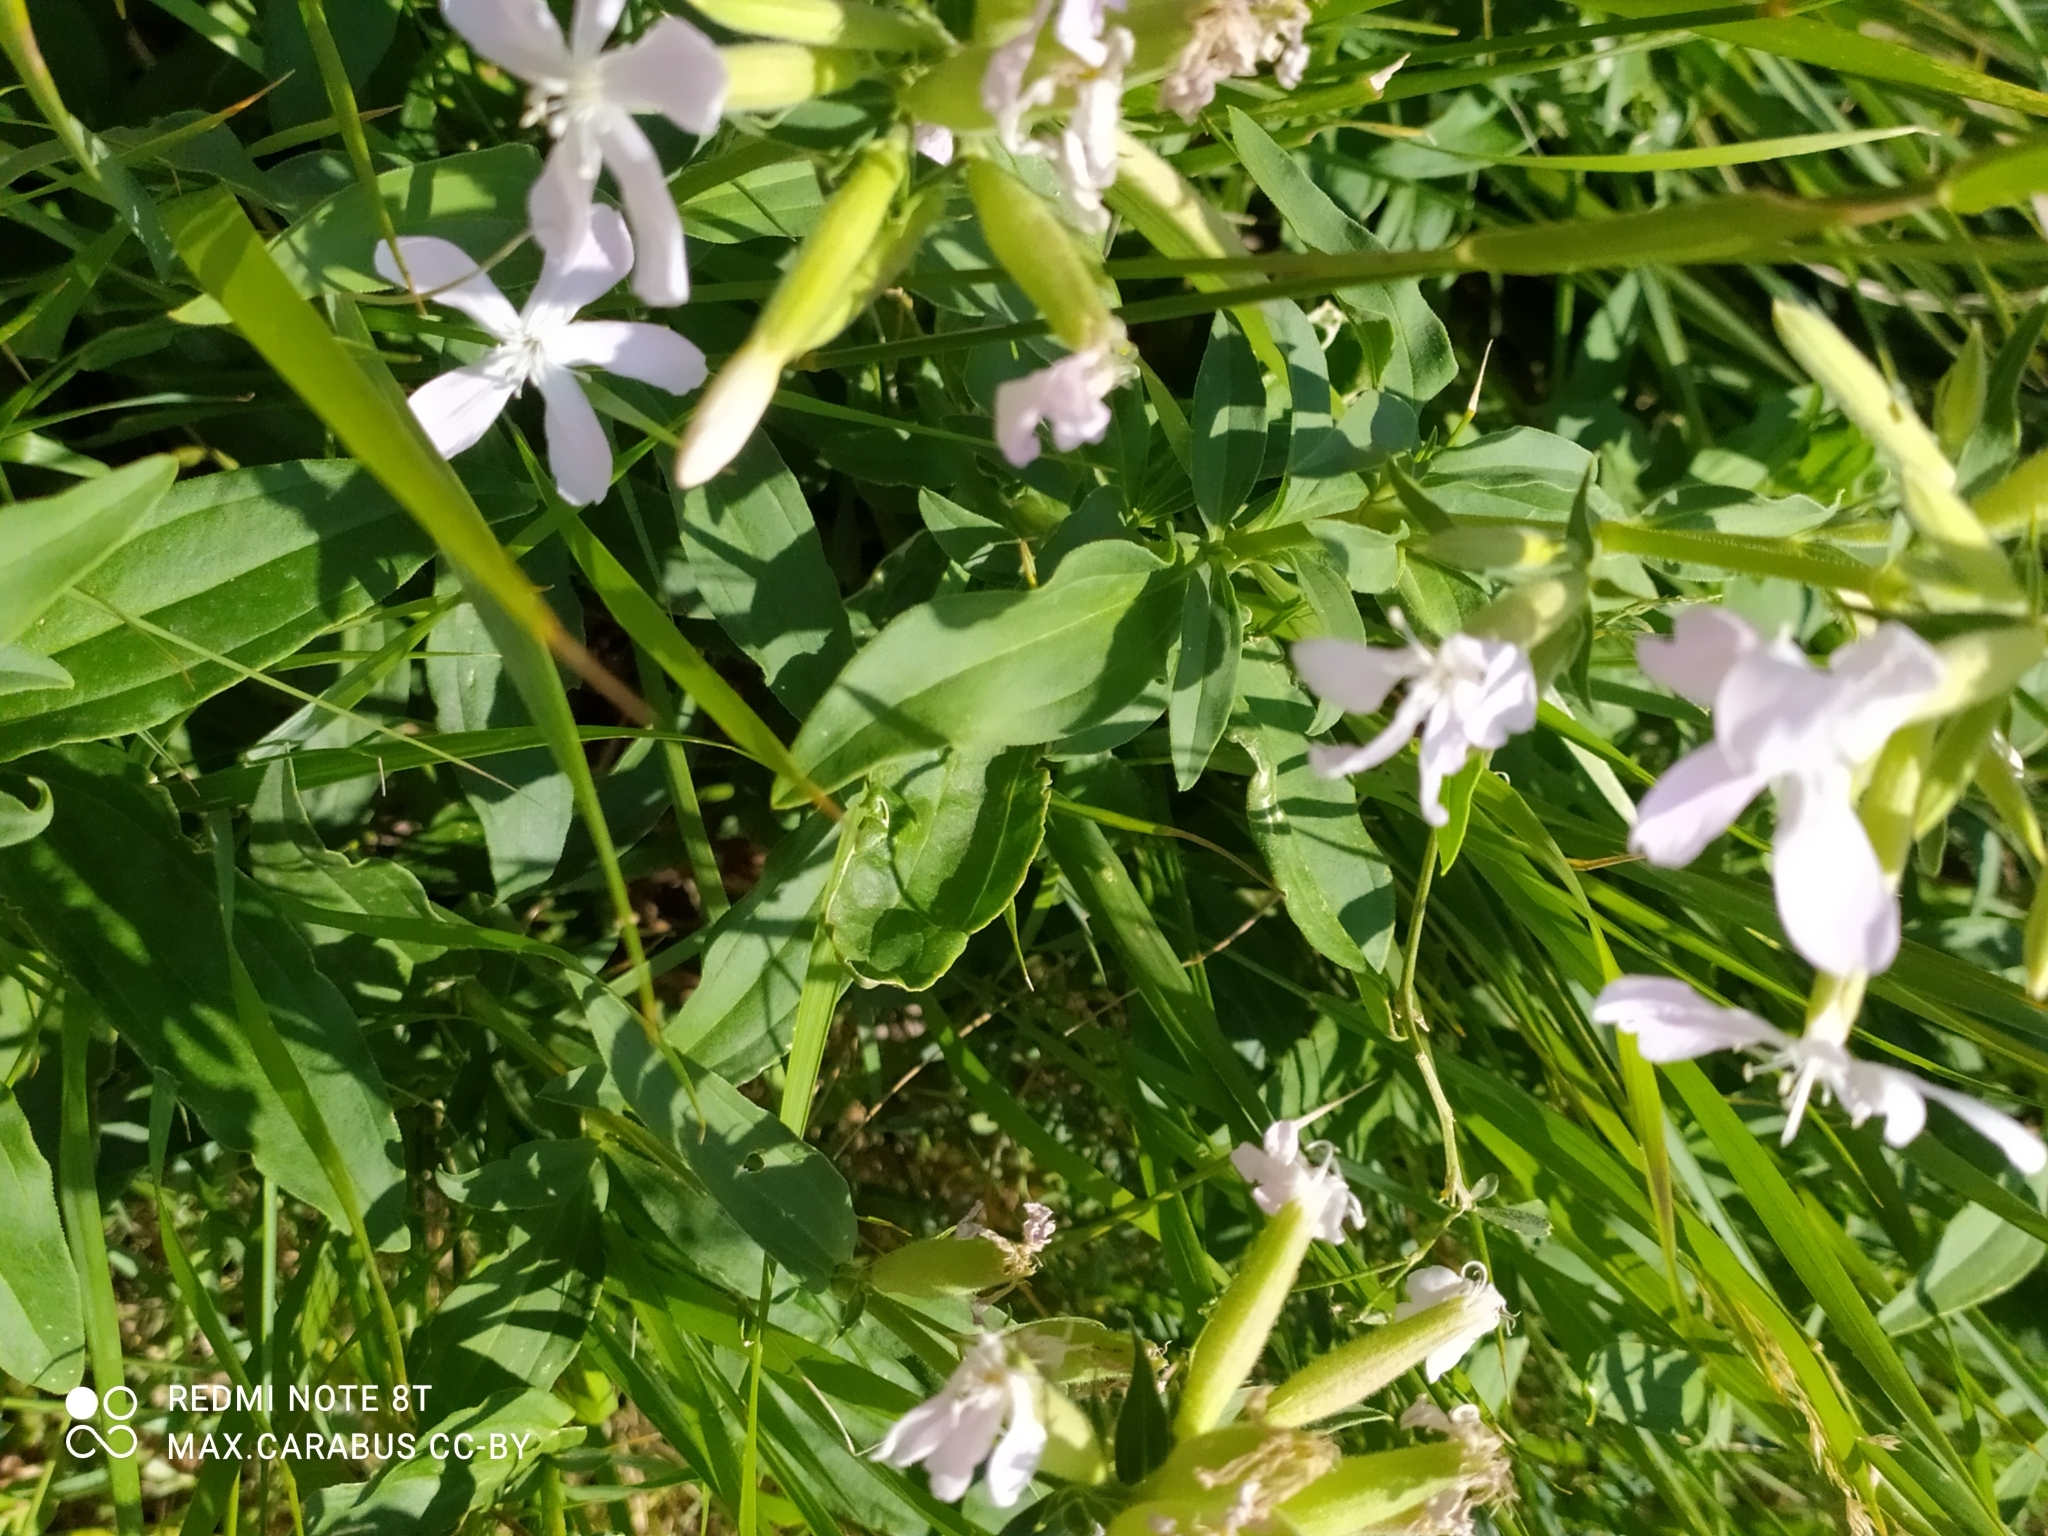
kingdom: Plantae
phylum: Tracheophyta
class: Magnoliopsida
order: Caryophyllales
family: Caryophyllaceae
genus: Saponaria
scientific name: Saponaria officinalis
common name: Soapwort
